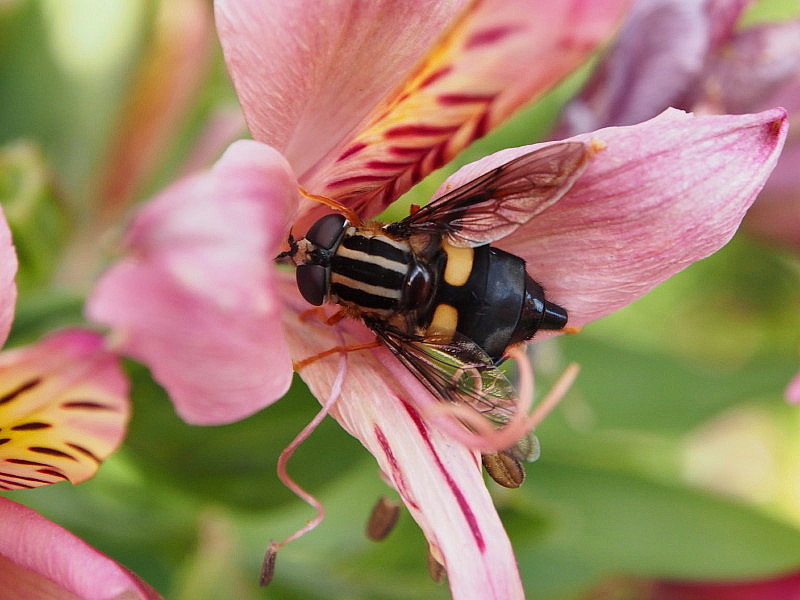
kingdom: Animalia
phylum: Arthropoda
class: Insecta
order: Diptera
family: Syrphidae
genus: Helophilus
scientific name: Helophilus seelandicus
